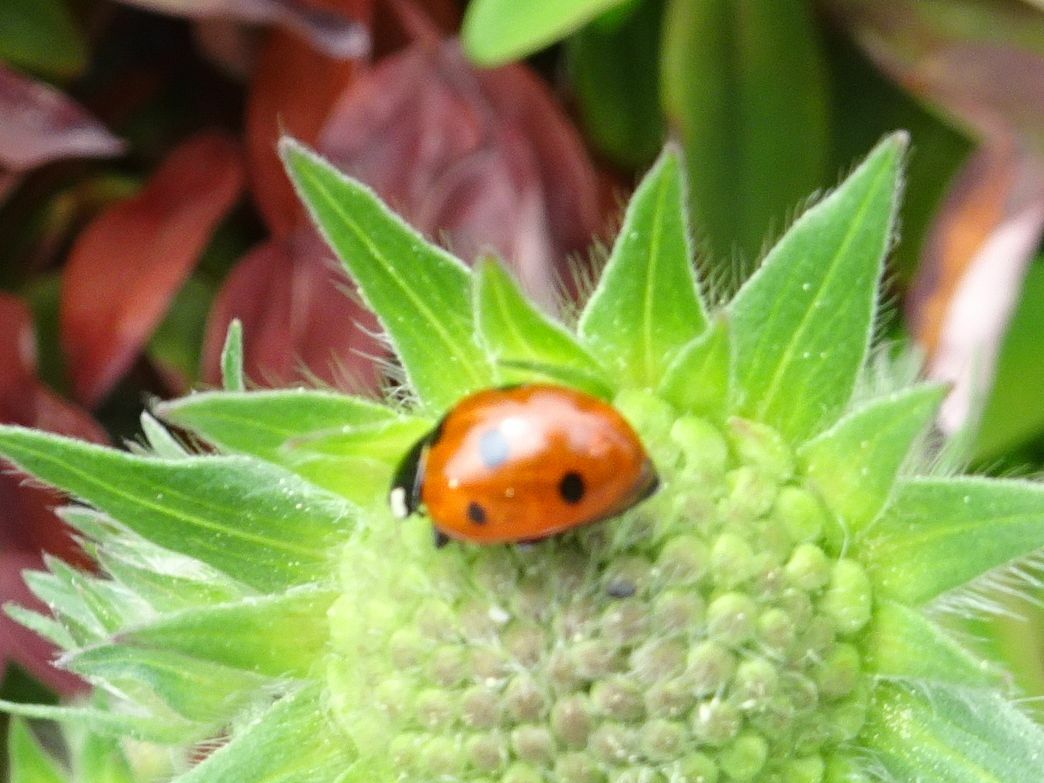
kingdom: Animalia
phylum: Arthropoda
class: Insecta
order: Coleoptera
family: Coccinellidae
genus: Coccinella
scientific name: Coccinella septempunctata
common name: Sevenspotted lady beetle
